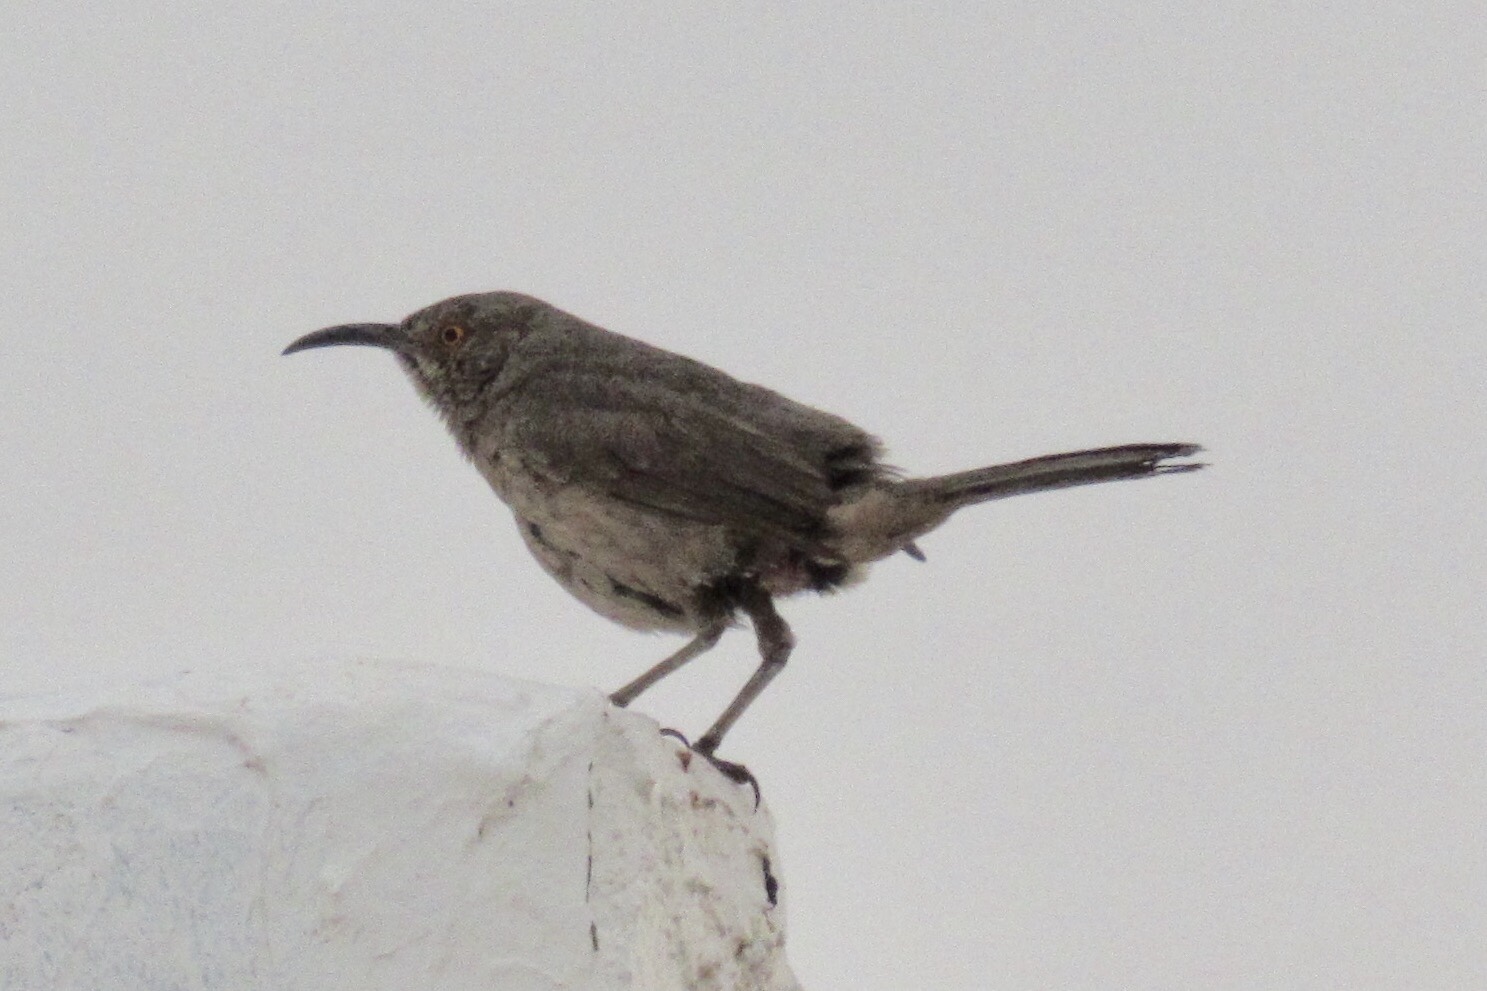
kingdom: Animalia
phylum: Chordata
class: Aves
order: Passeriformes
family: Mimidae
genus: Toxostoma
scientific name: Toxostoma curvirostre
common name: Curve-billed thrasher
